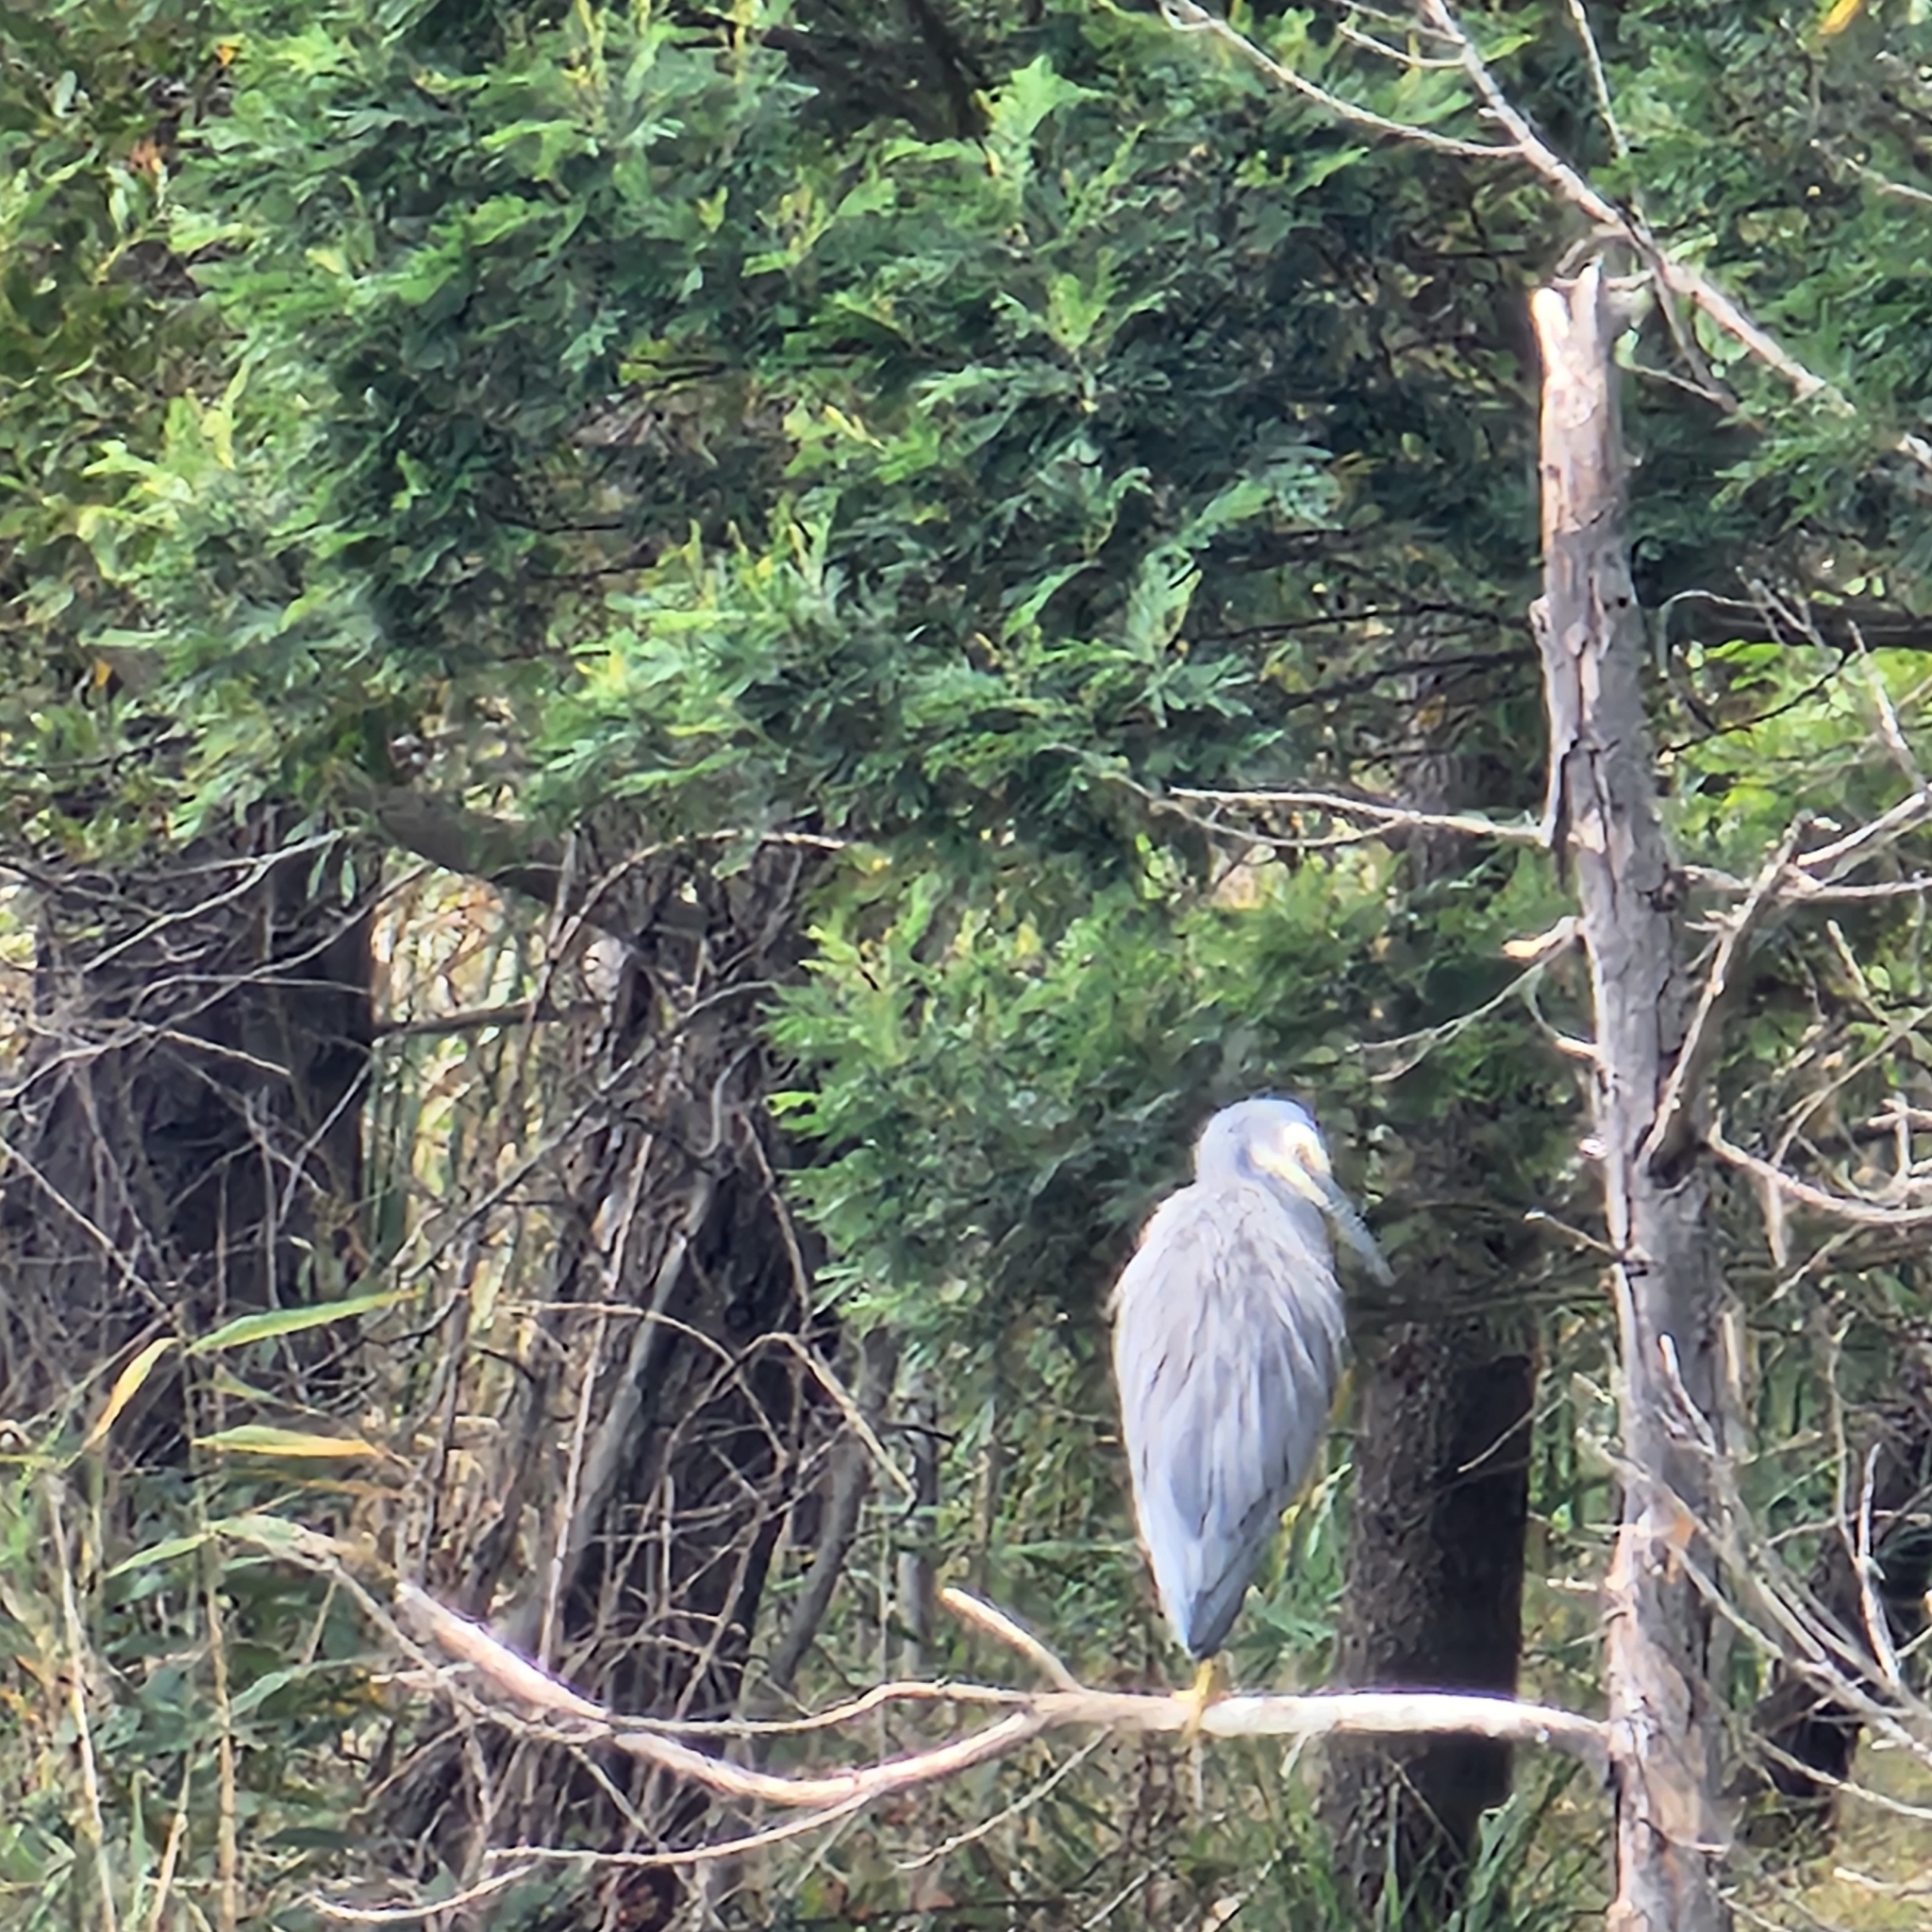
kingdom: Animalia
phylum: Chordata
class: Aves
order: Pelecaniformes
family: Ardeidae
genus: Egretta
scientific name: Egretta novaehollandiae
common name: White-faced heron
